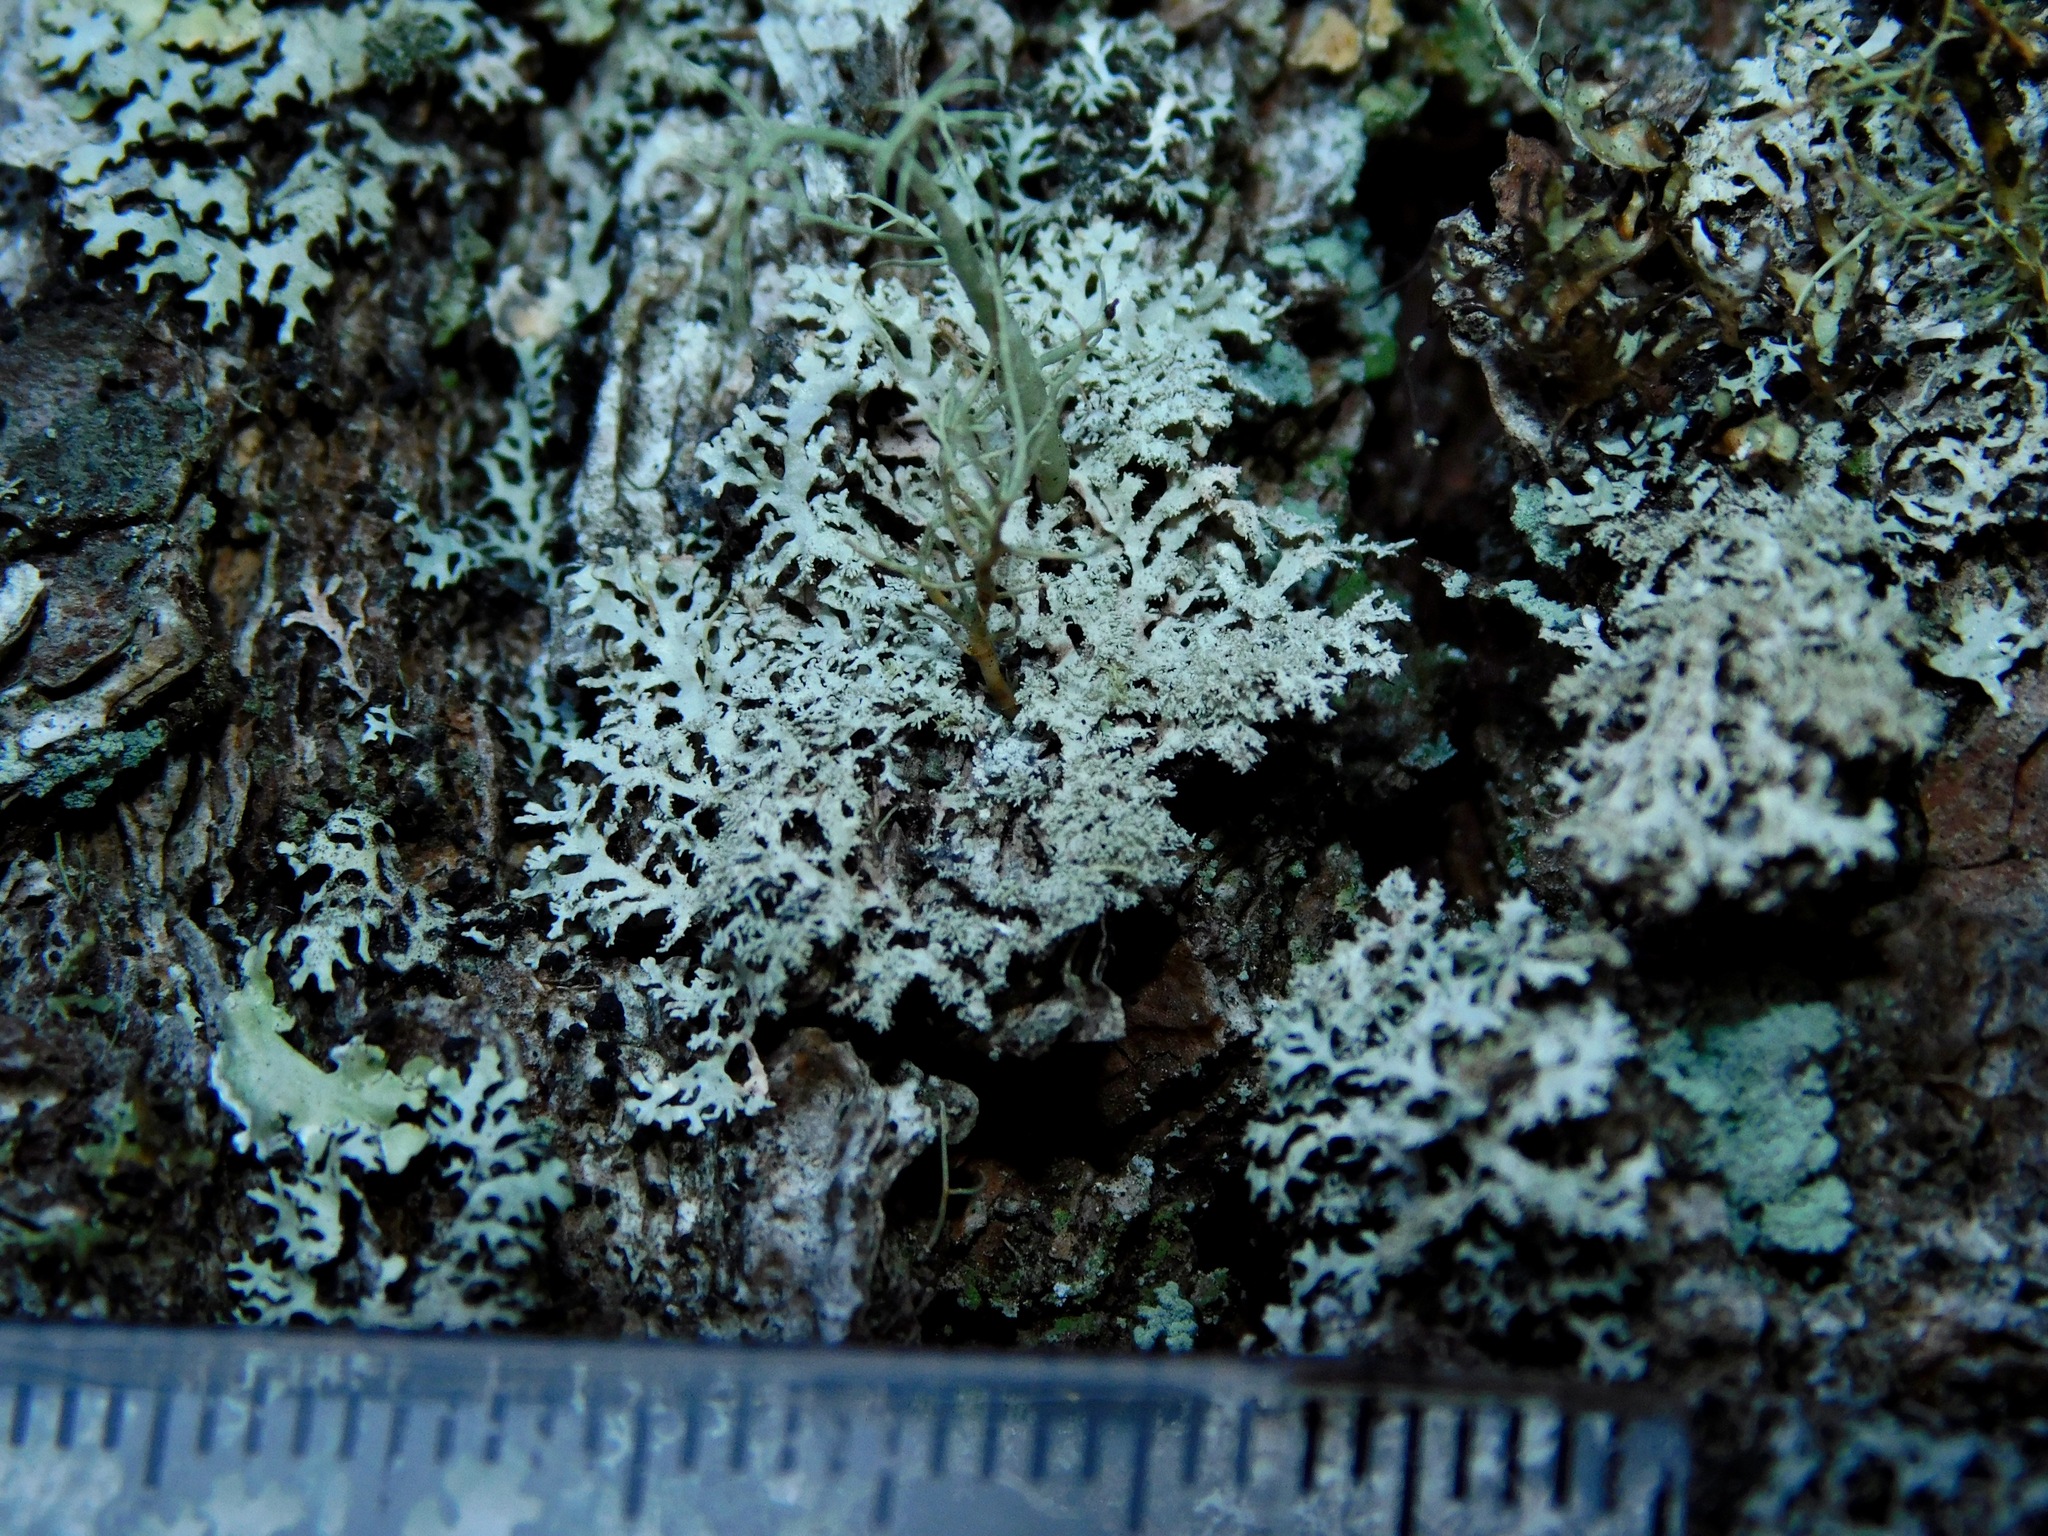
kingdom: Fungi
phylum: Ascomycota
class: Lecanoromycetes
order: Lecanorales
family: Parmeliaceae
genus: Imshaugia
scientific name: Imshaugia aleurites
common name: Salted starburst lichen
